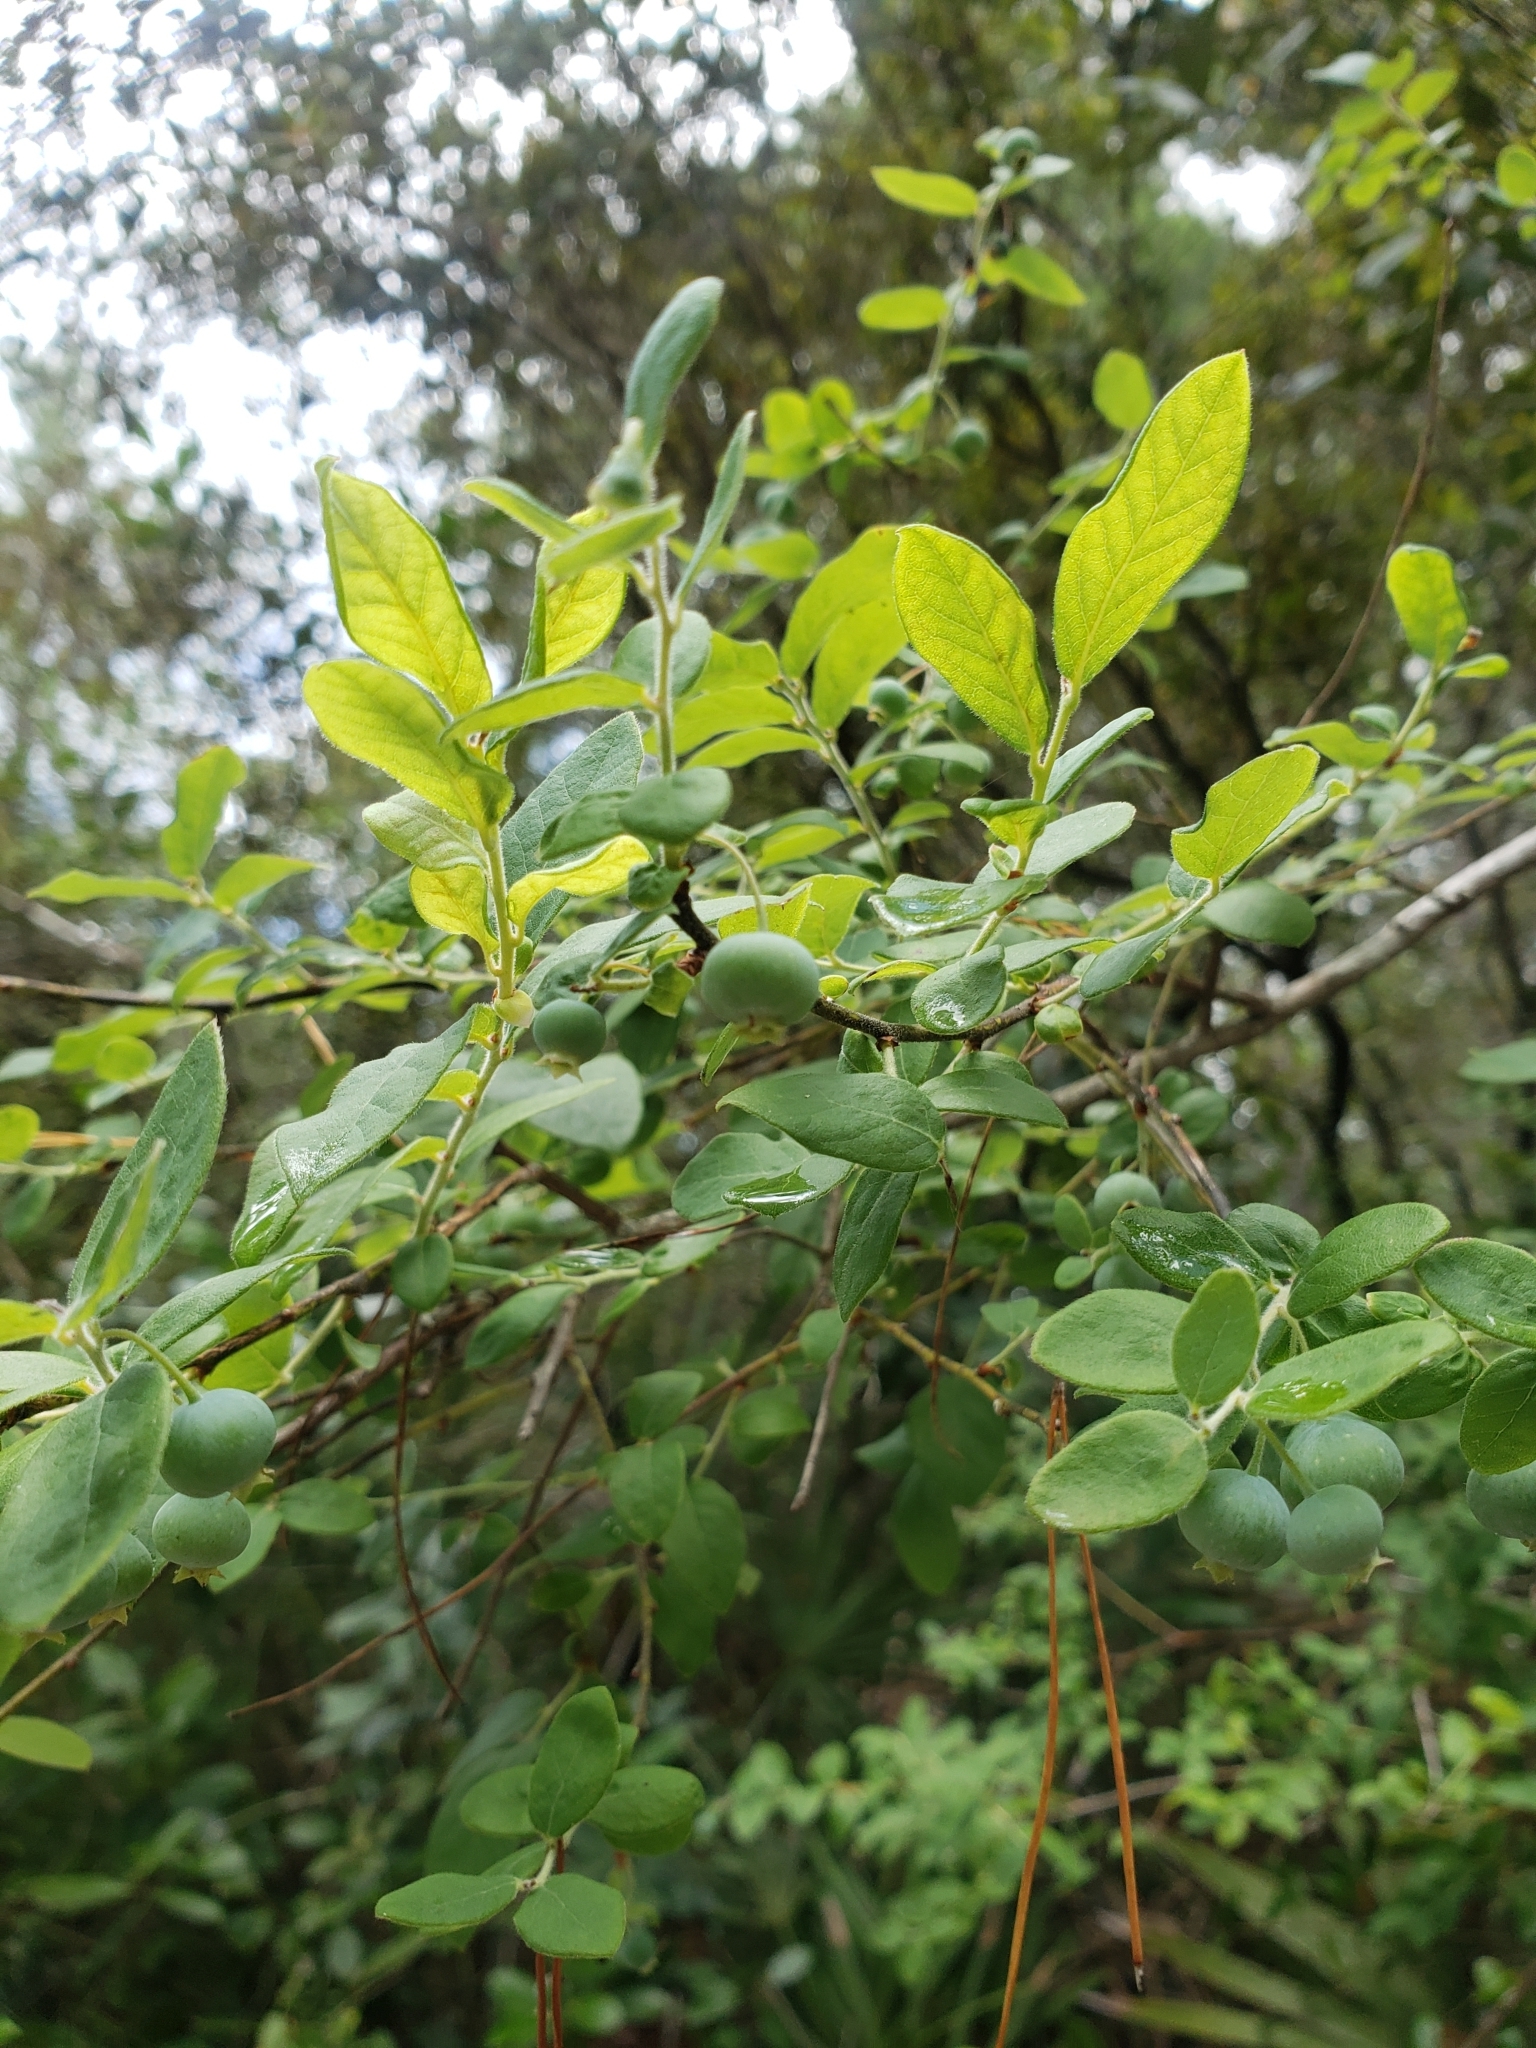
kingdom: Plantae
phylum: Tracheophyta
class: Magnoliopsida
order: Ericales
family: Ericaceae
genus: Vaccinium
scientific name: Vaccinium stamineum
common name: Deerberry
